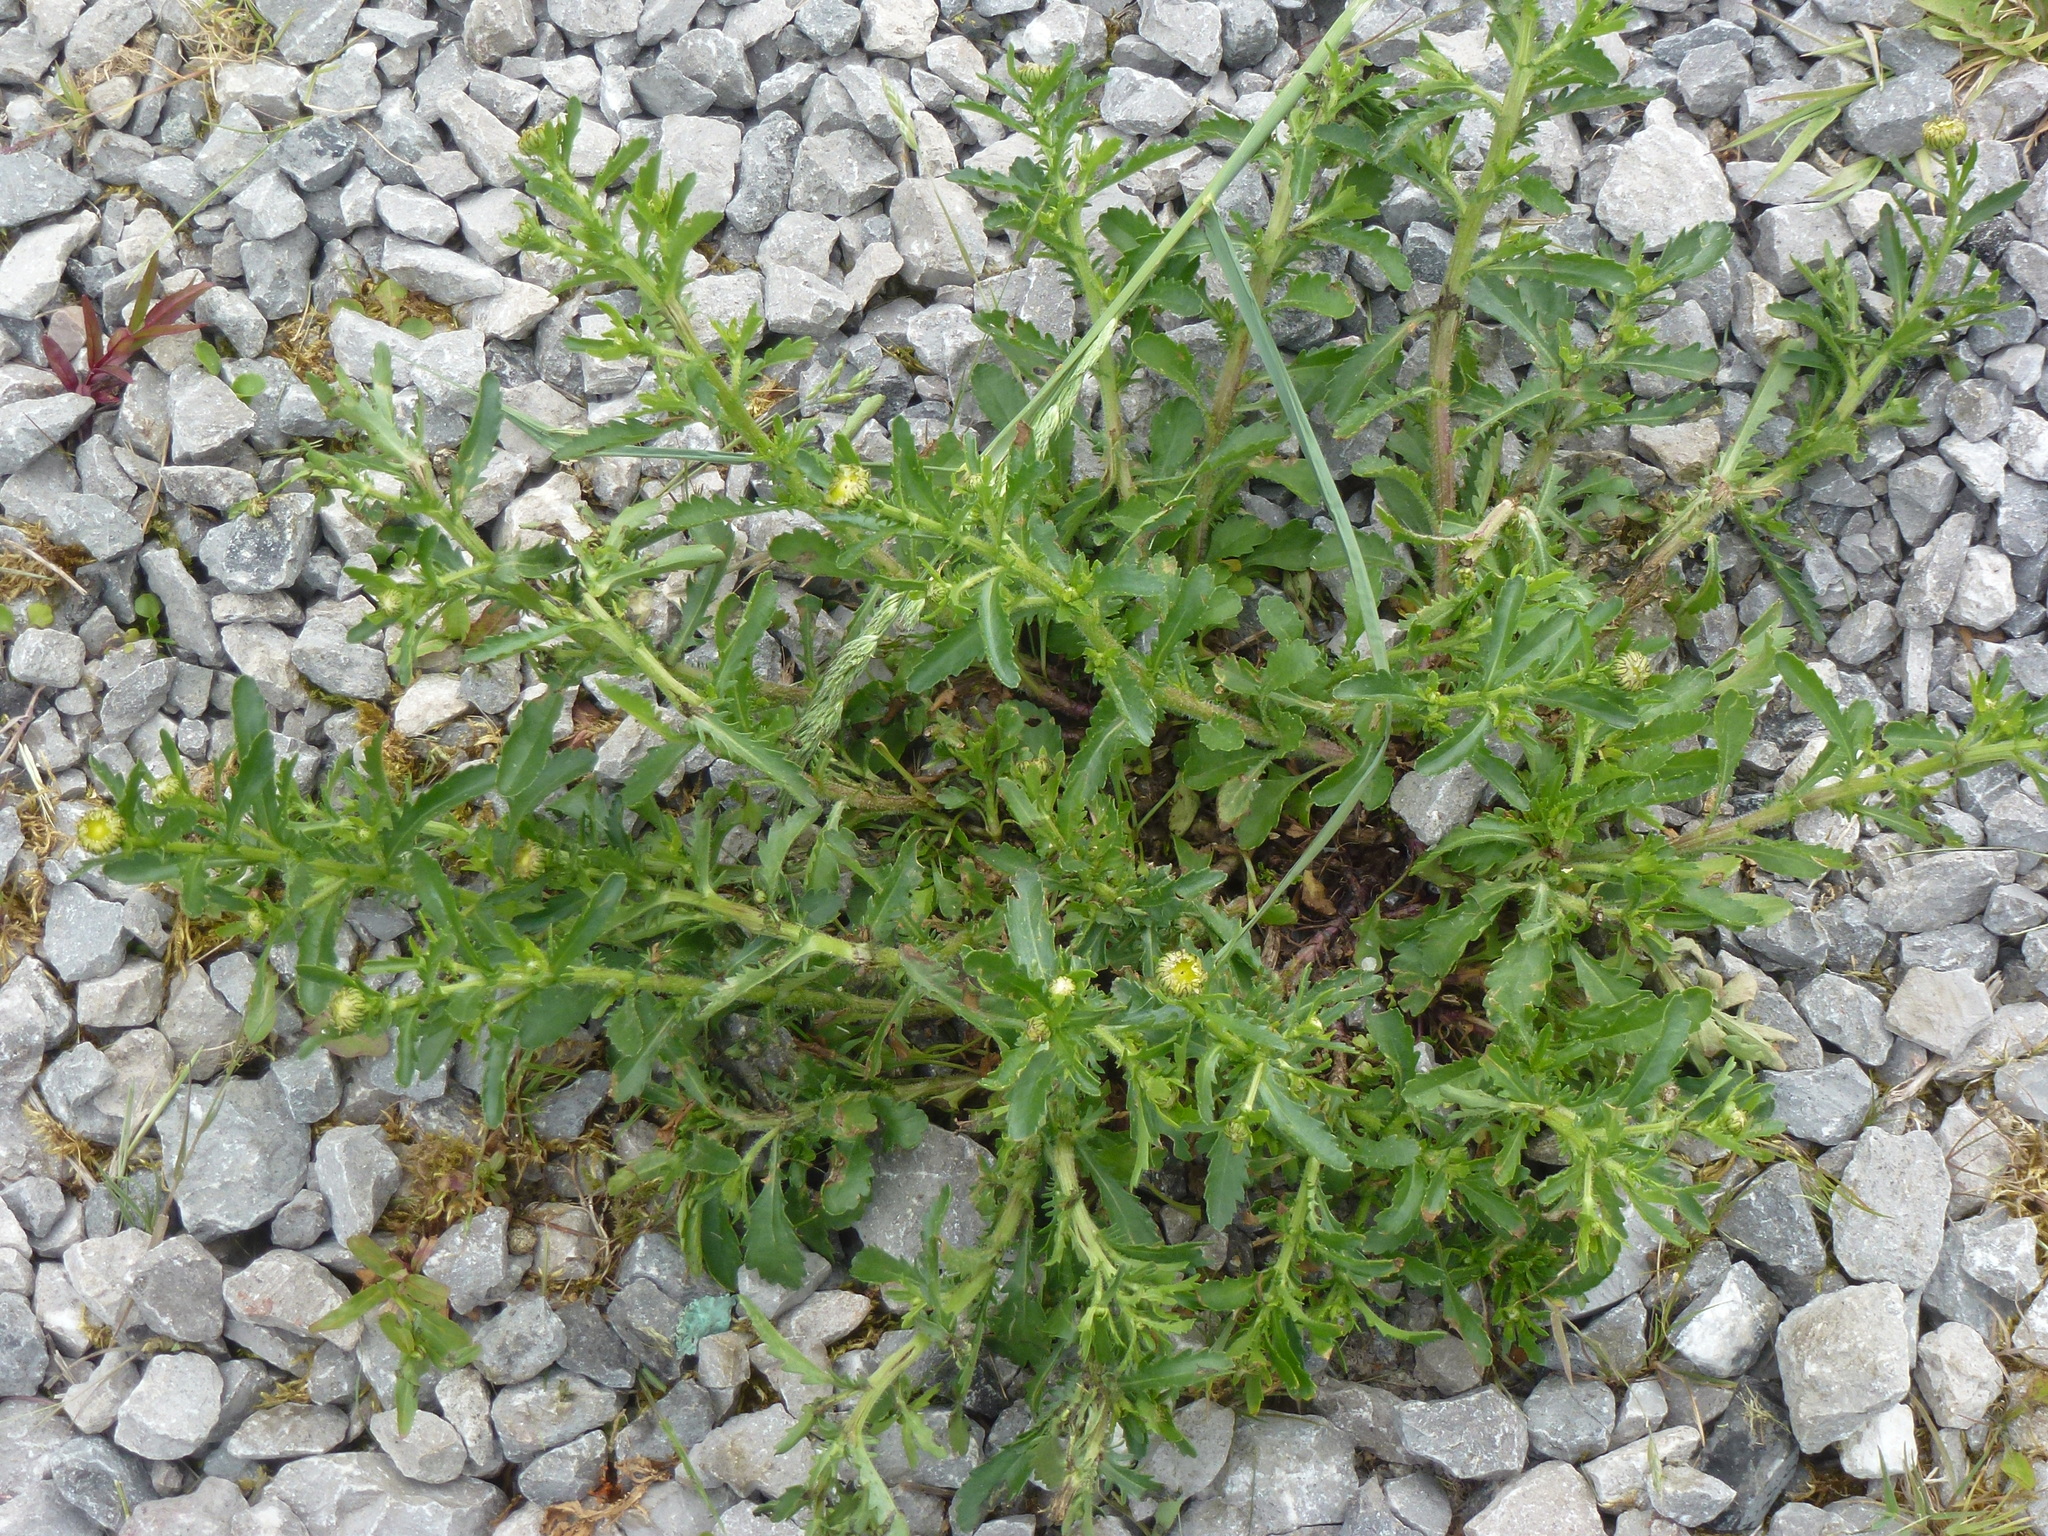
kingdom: Plantae
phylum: Tracheophyta
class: Magnoliopsida
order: Asterales
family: Asteraceae
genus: Leucanthemum
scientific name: Leucanthemum vulgare
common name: Oxeye daisy
